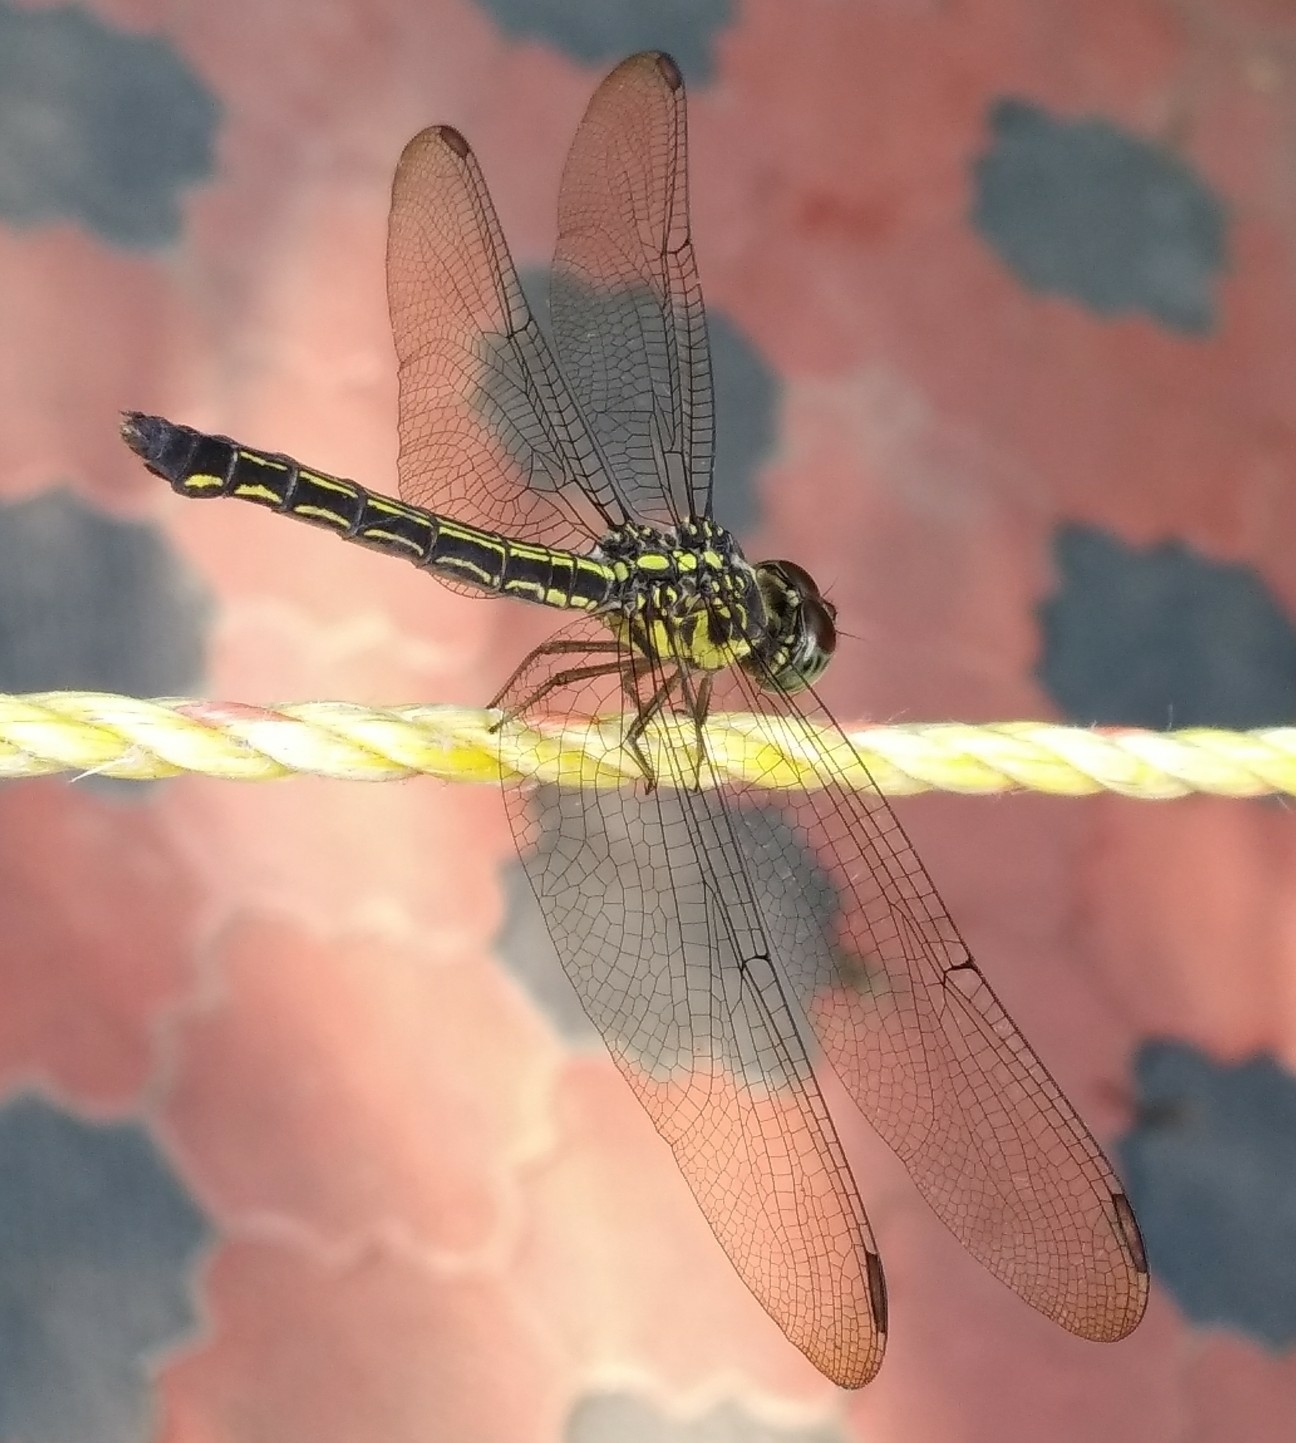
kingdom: Animalia
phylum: Arthropoda
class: Insecta
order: Odonata
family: Libellulidae
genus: Cratilla
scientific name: Cratilla lineata
